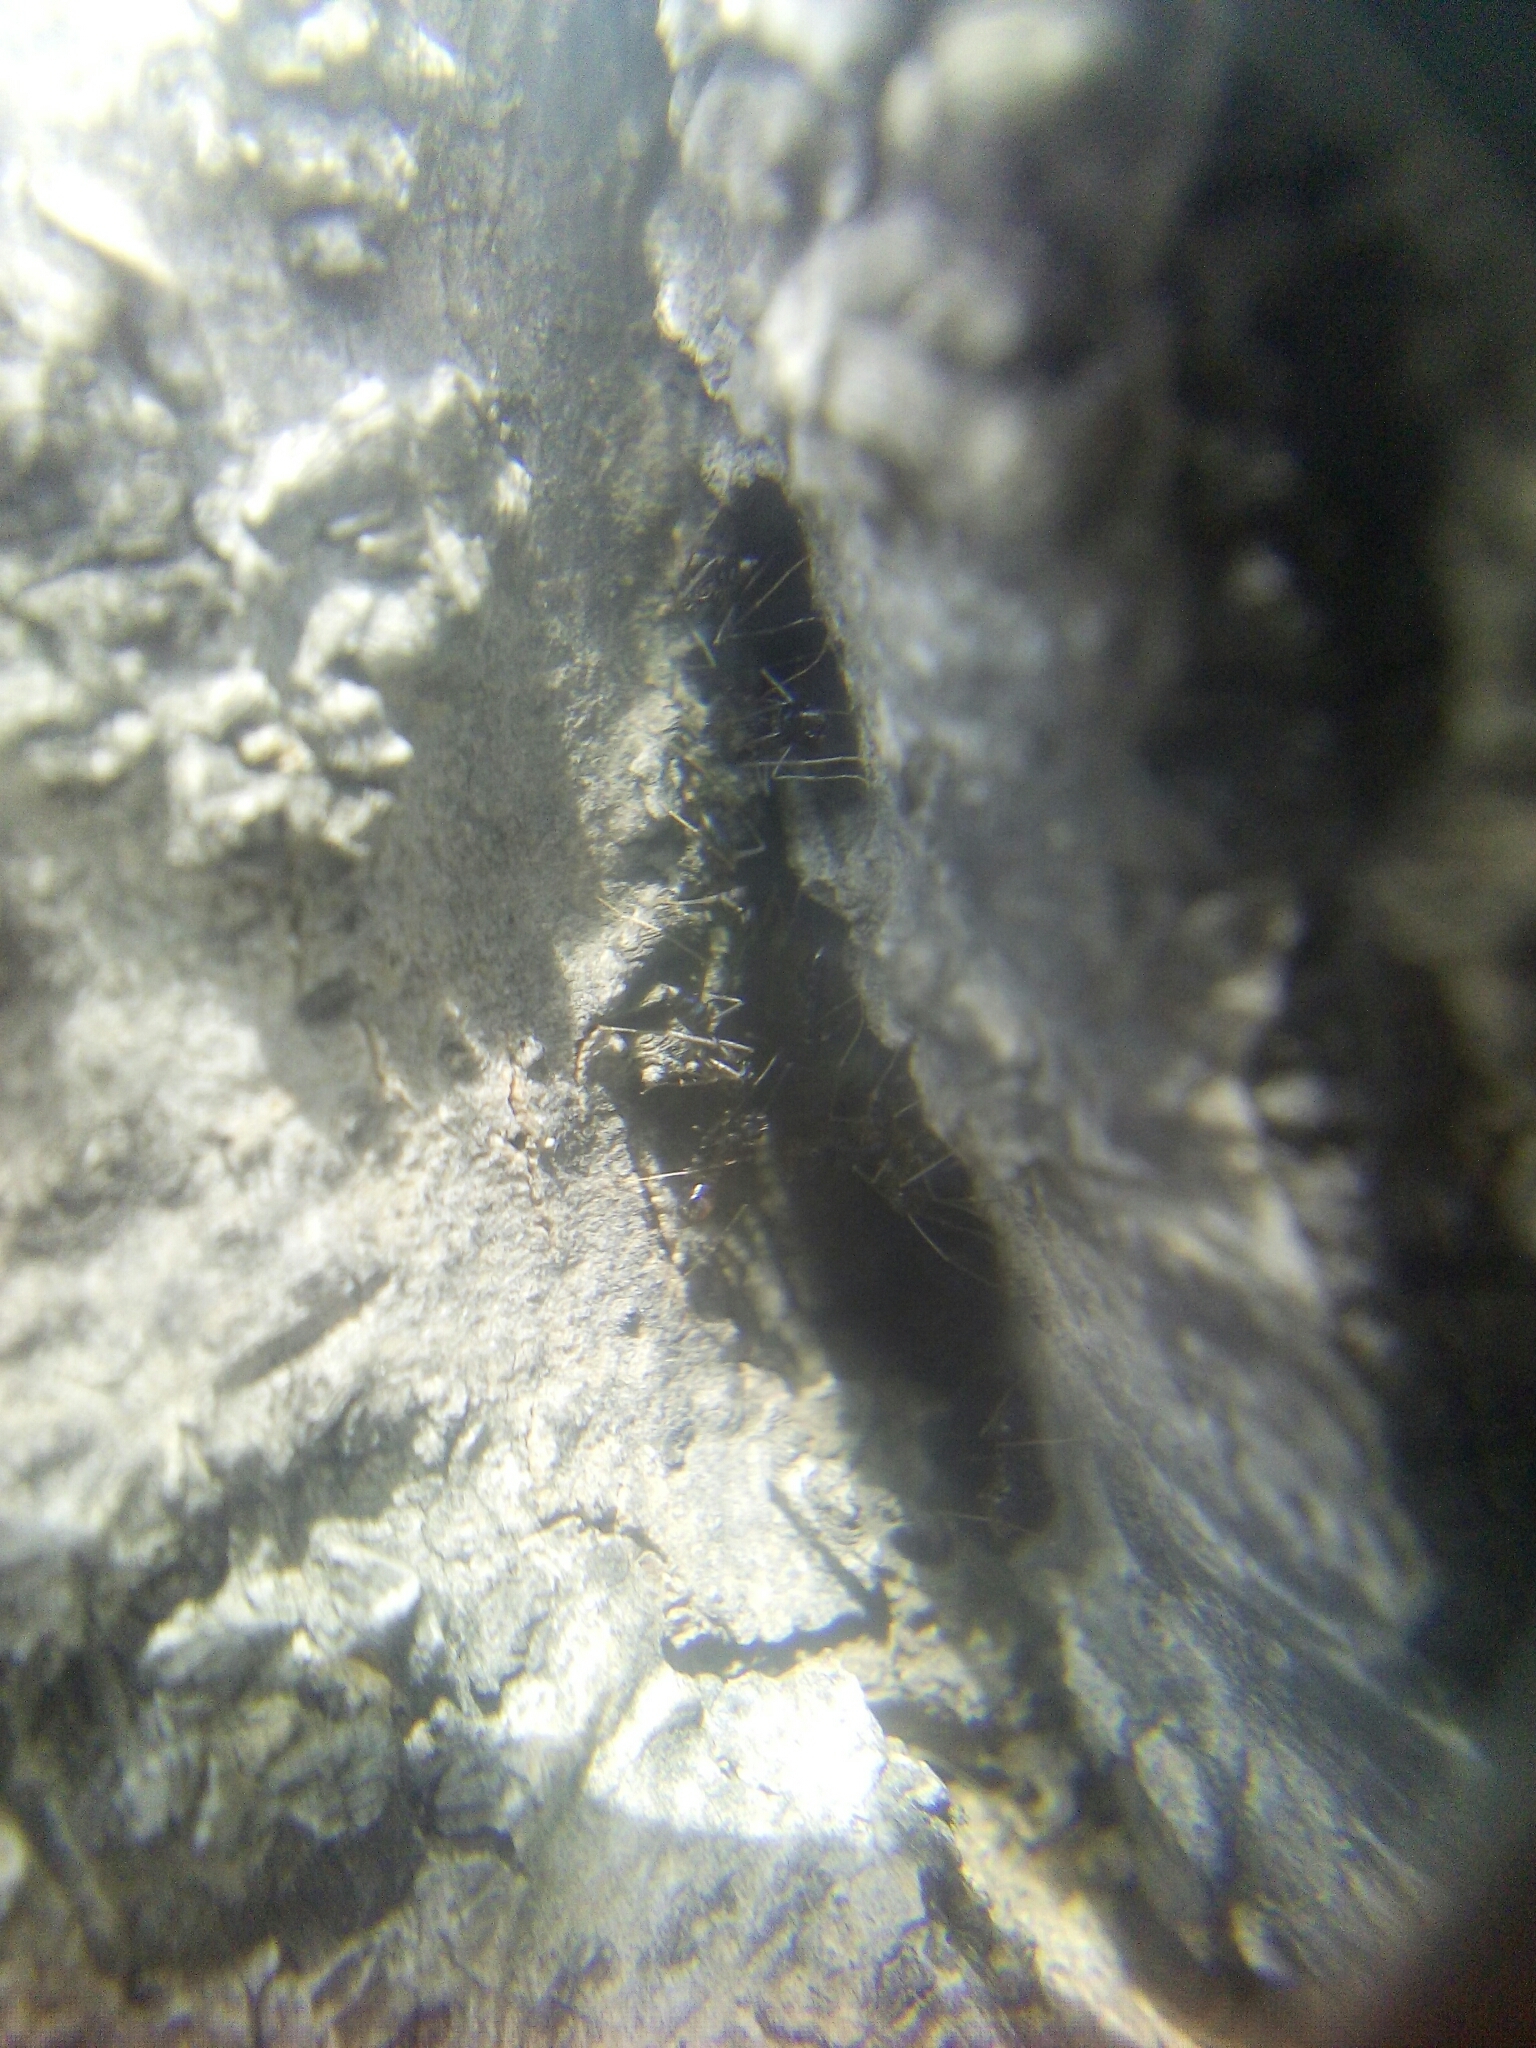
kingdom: Animalia
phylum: Arthropoda
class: Insecta
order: Hymenoptera
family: Formicidae
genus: Paratrechina
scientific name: Paratrechina longicornis
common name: Longhorned crazy ant
